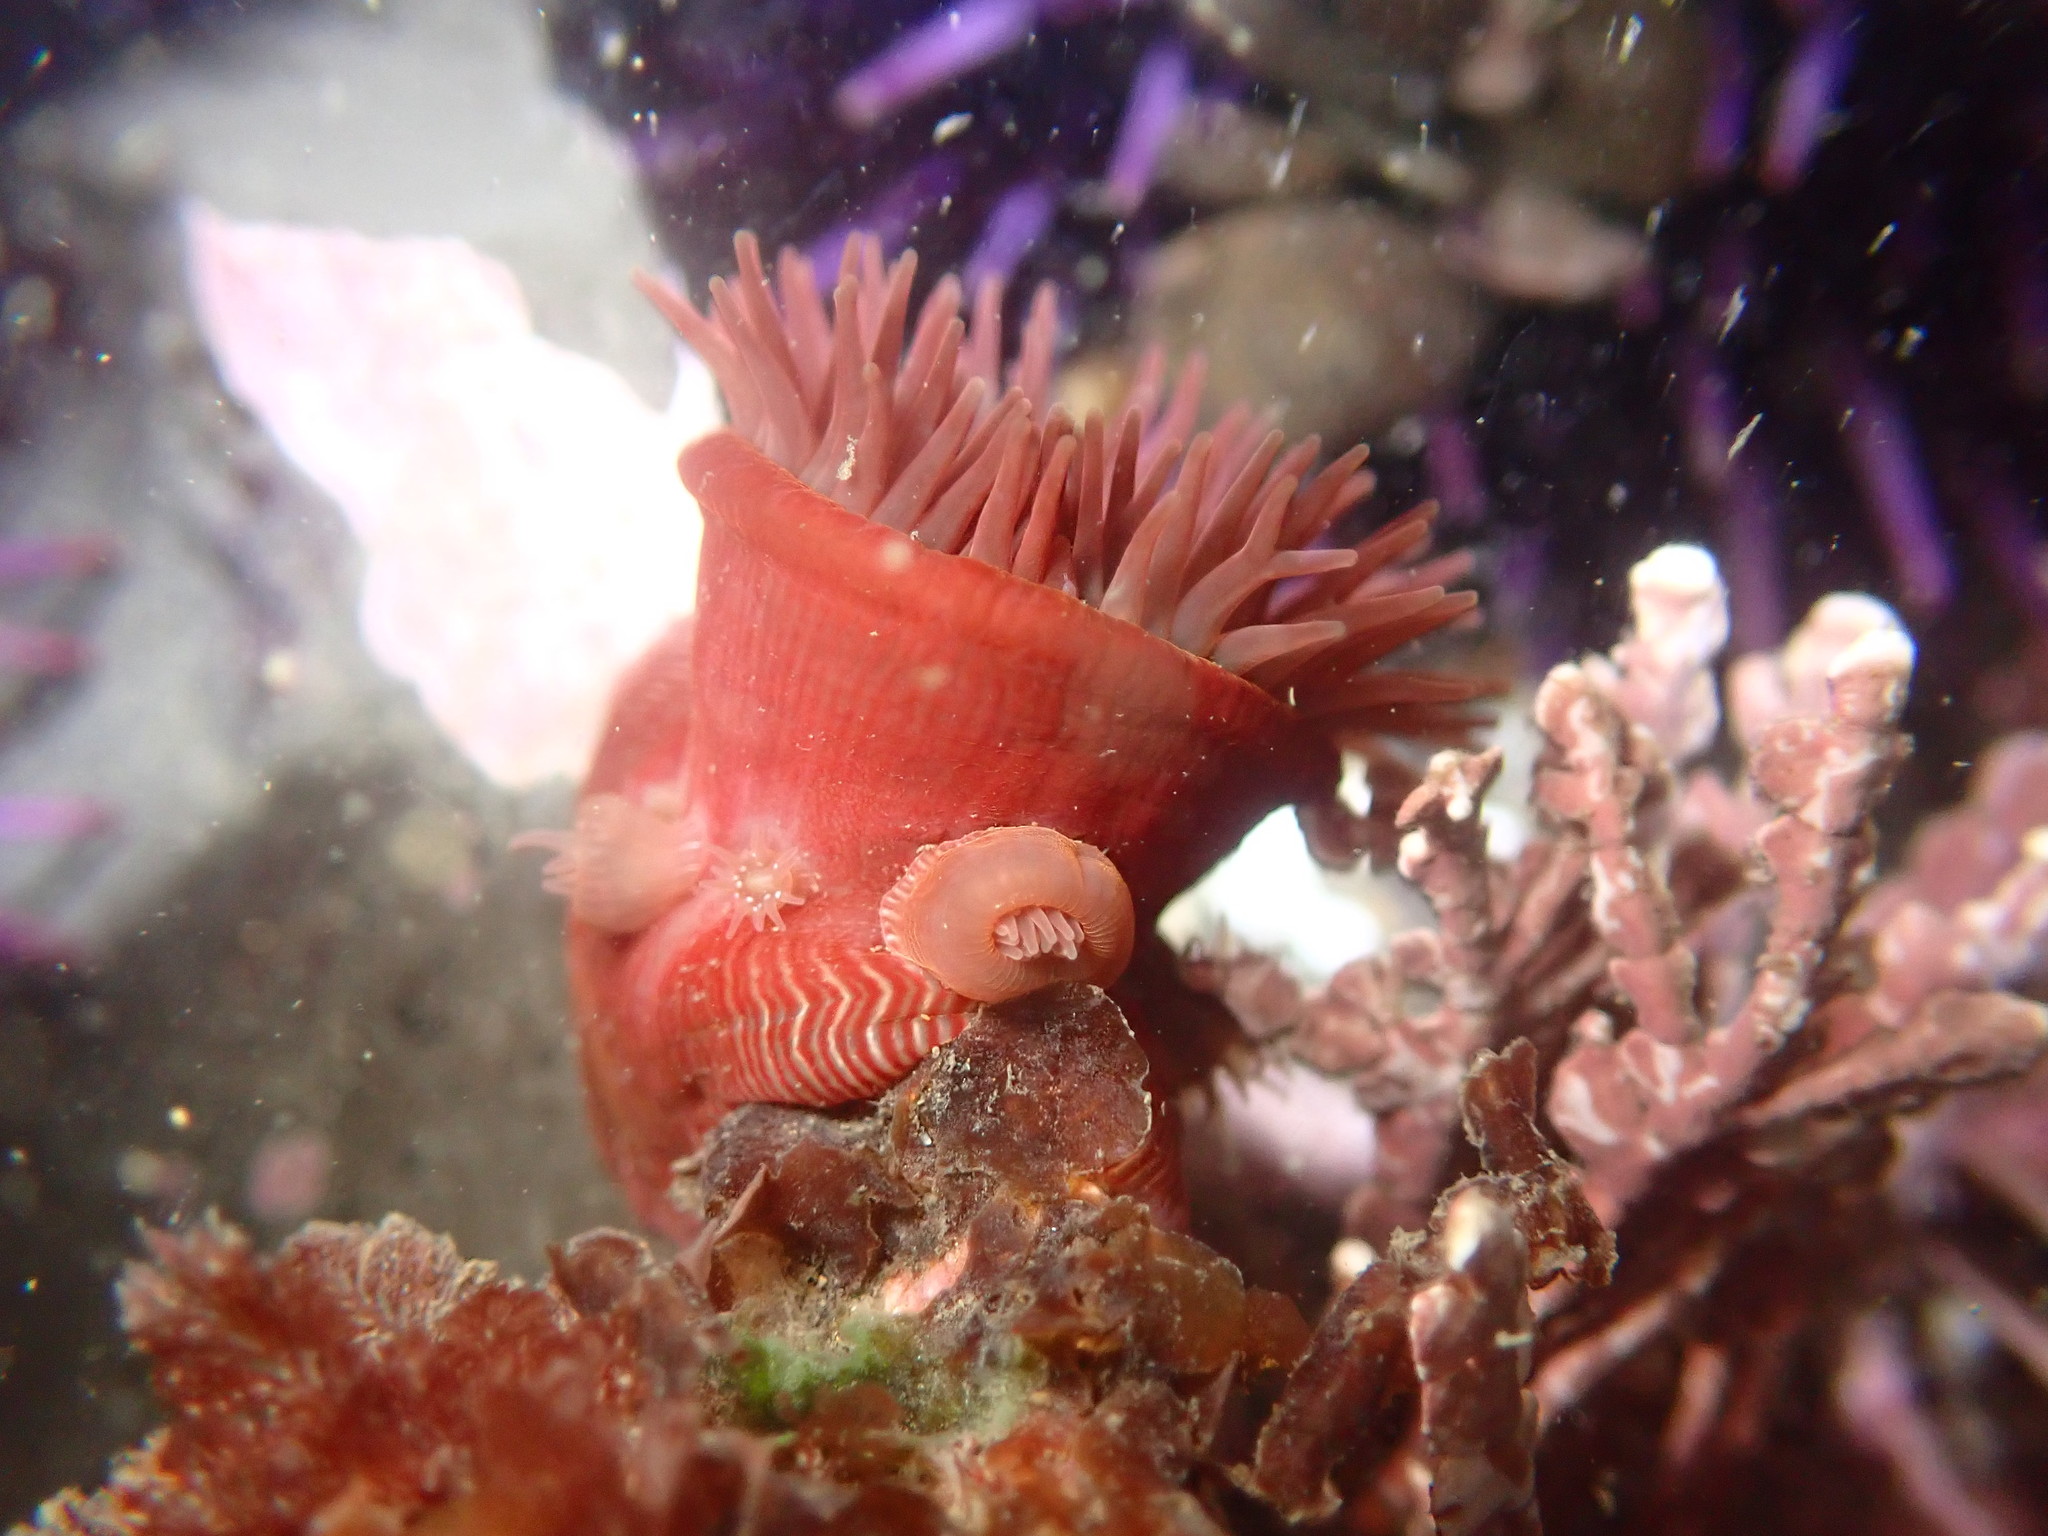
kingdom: Animalia
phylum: Cnidaria
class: Anthozoa
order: Actiniaria
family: Actiniidae
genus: Epiactis
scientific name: Epiactis prolifera
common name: Brooding anemone
